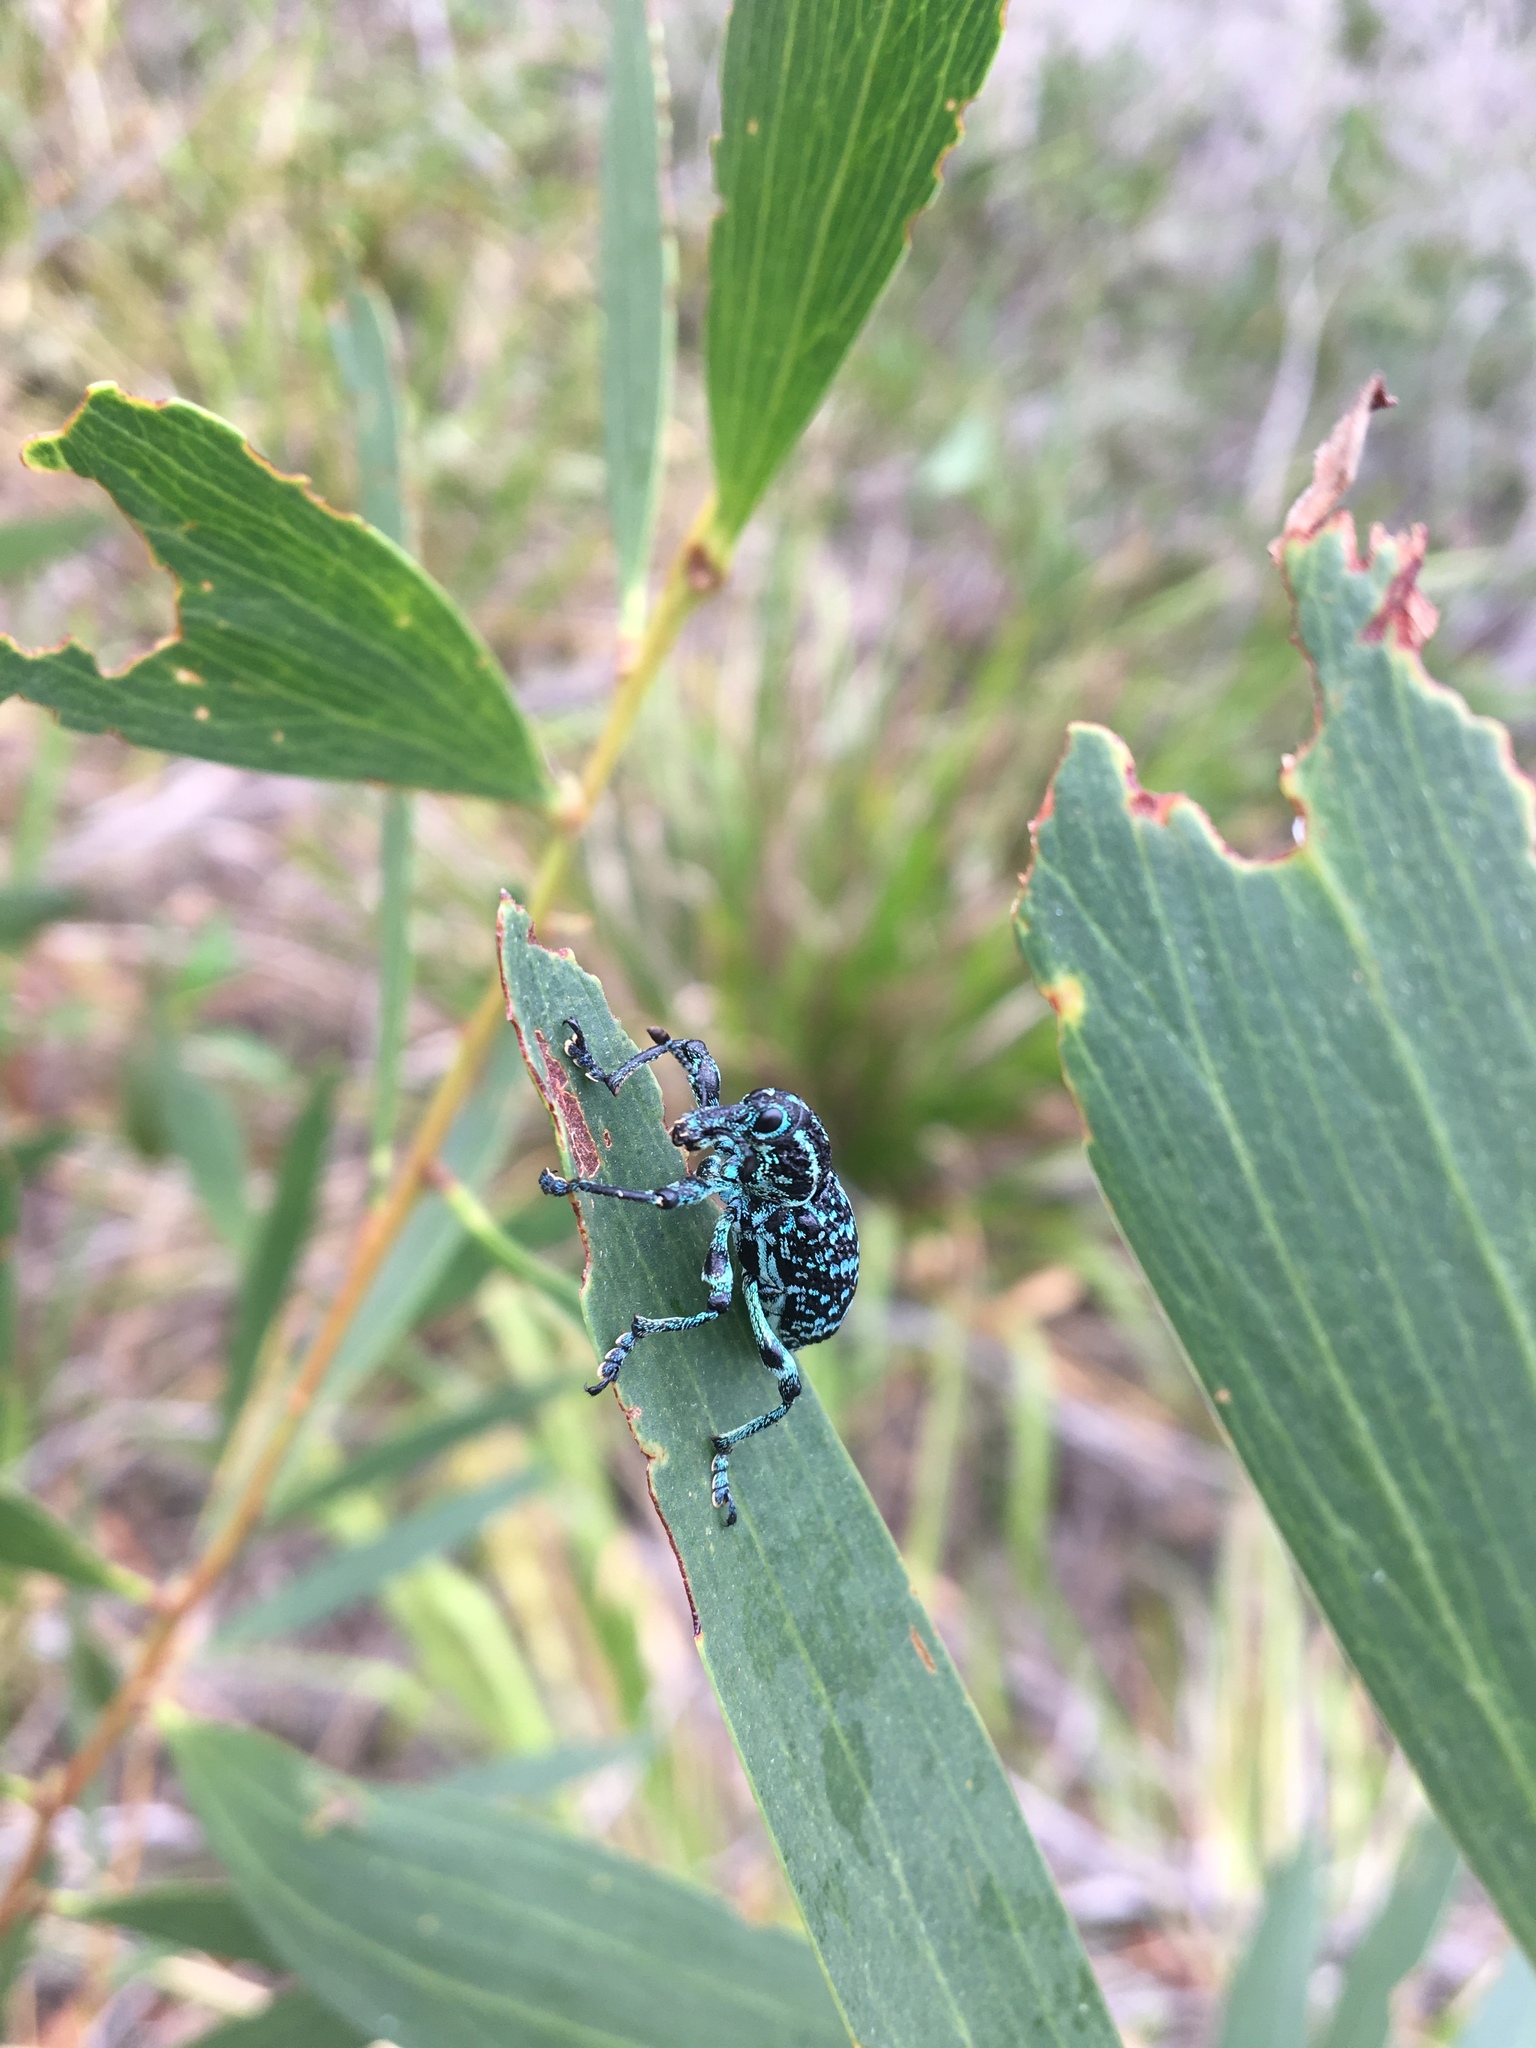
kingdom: Animalia
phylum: Arthropoda
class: Insecta
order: Coleoptera
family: Curculionidae
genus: Chrysolopus
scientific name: Chrysolopus spectabilis
